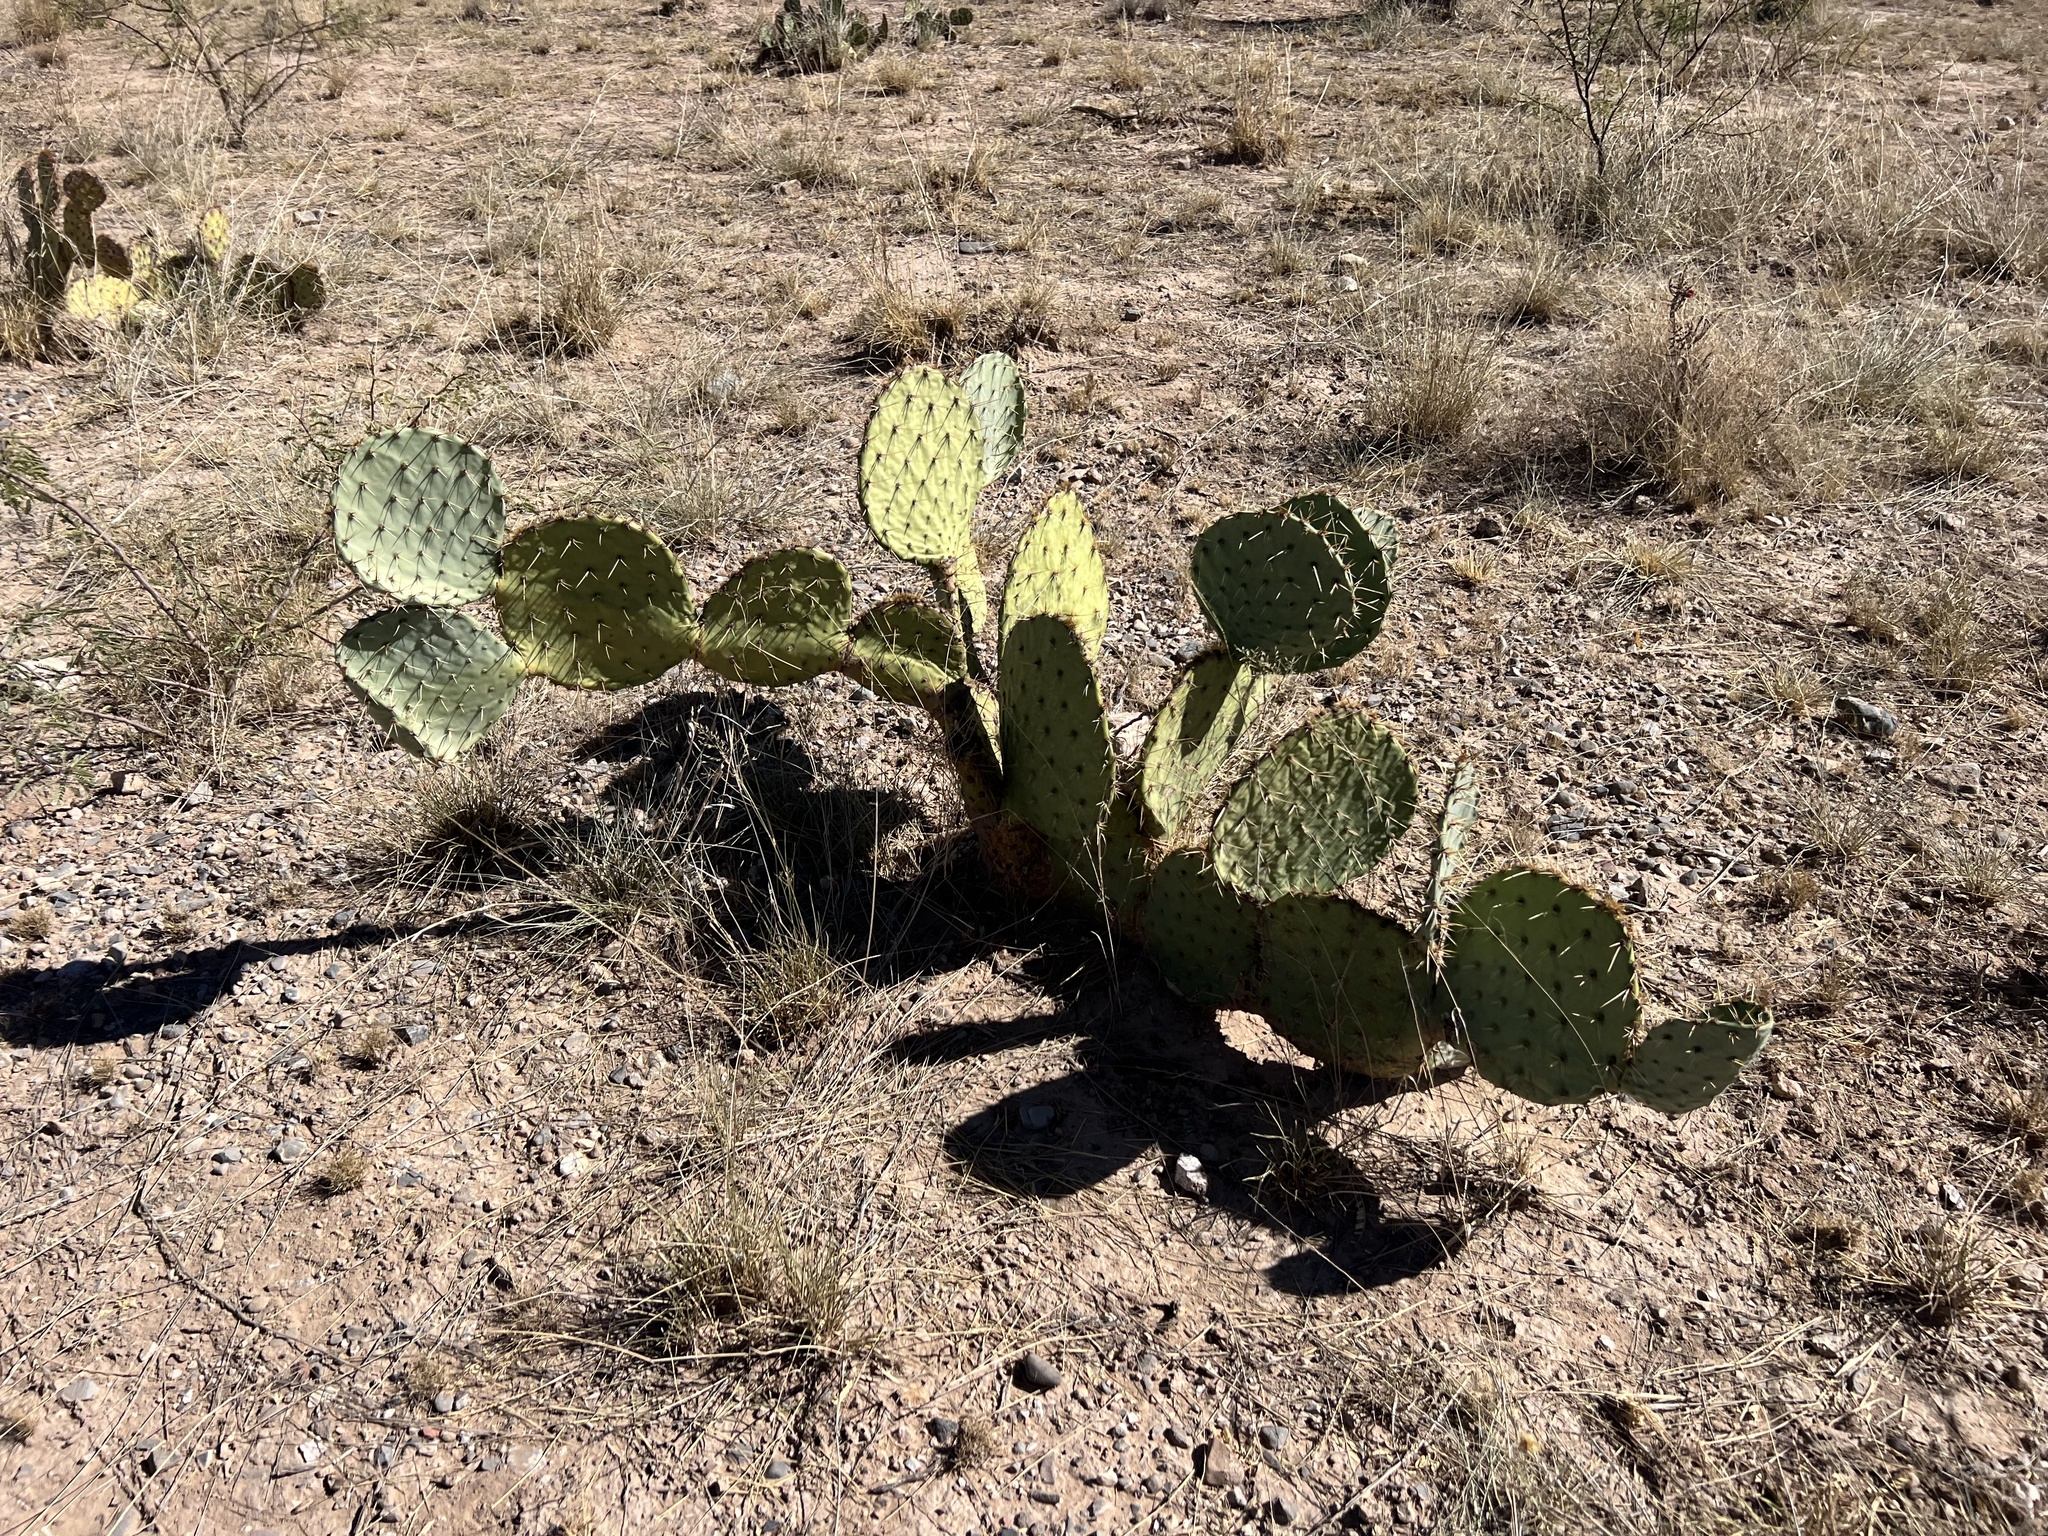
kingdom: Plantae
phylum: Tracheophyta
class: Magnoliopsida
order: Caryophyllales
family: Cactaceae
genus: Opuntia
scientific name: Opuntia engelmannii
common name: Cactus-apple
